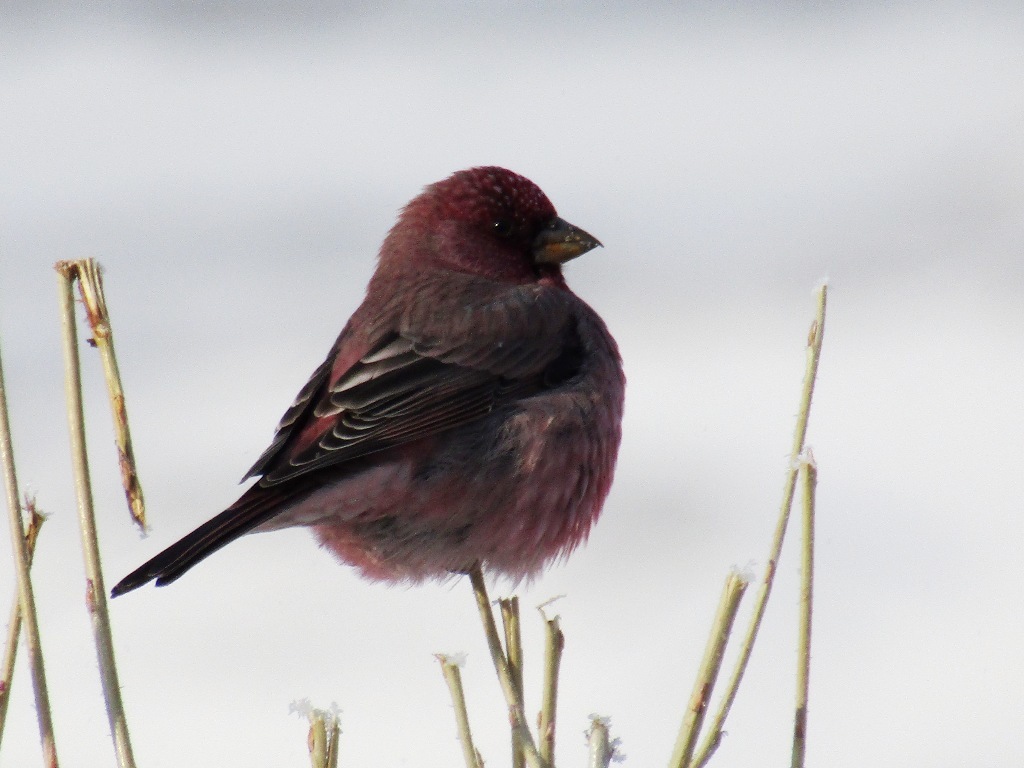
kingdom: Animalia
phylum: Chordata
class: Aves
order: Passeriformes
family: Fringillidae
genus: Carpodacus
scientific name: Carpodacus rubicilla
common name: Great rosefinch
